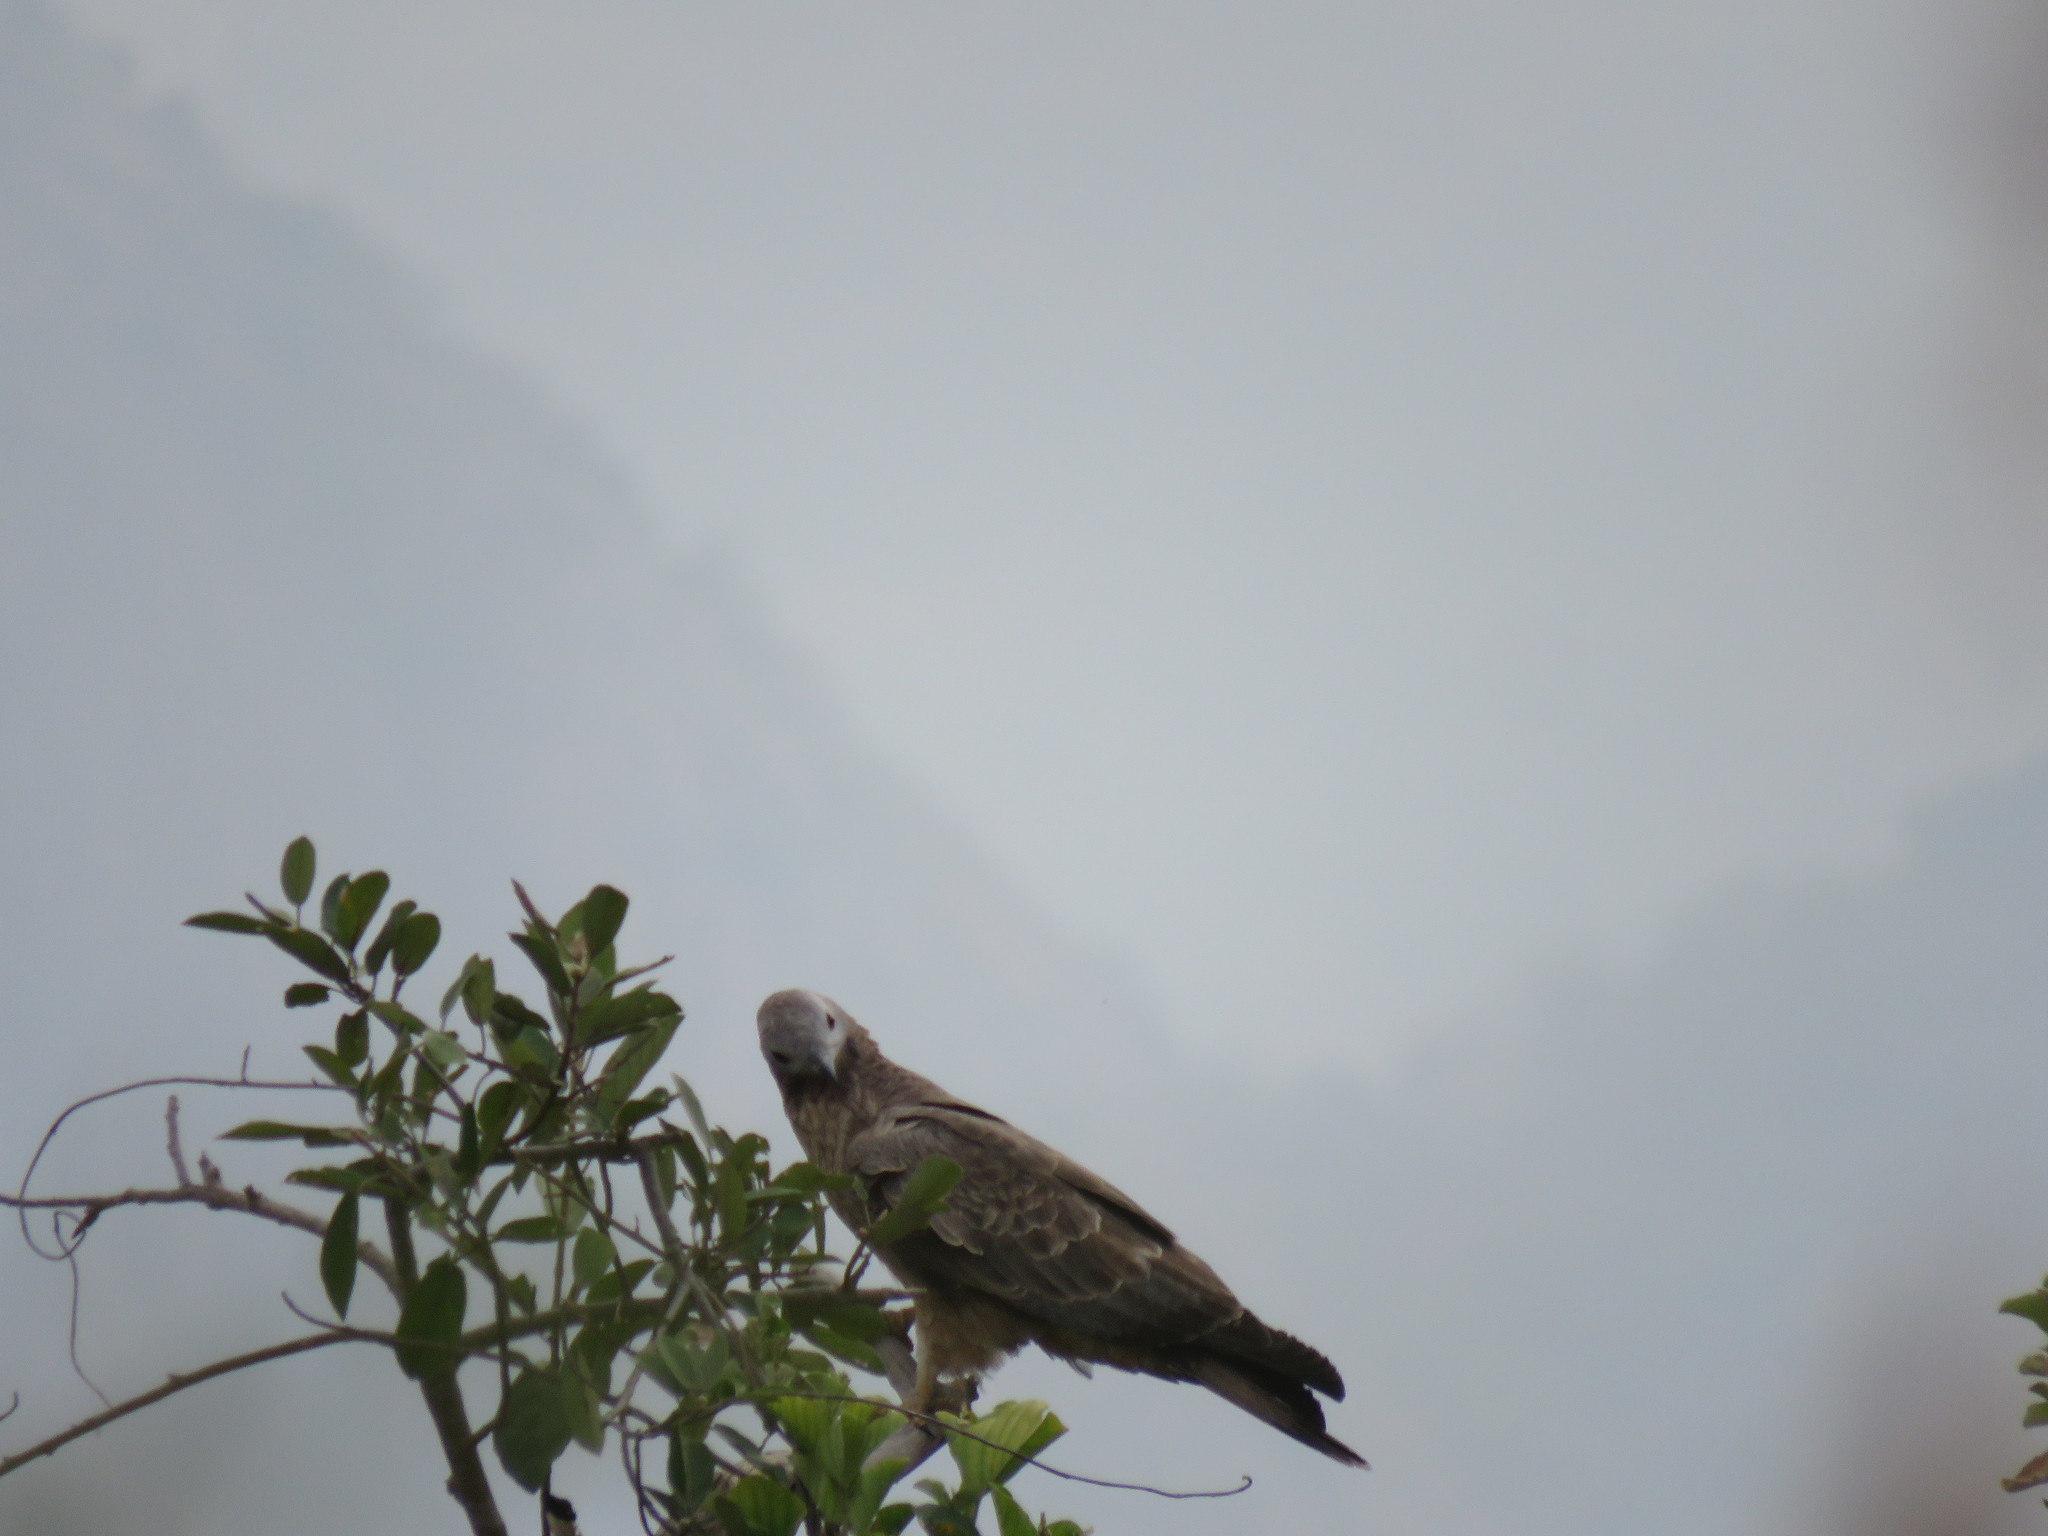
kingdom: Animalia
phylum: Chordata
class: Aves
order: Accipitriformes
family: Accipitridae
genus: Pernis
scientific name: Pernis ptilorhynchus
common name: Crested honey buzzard
